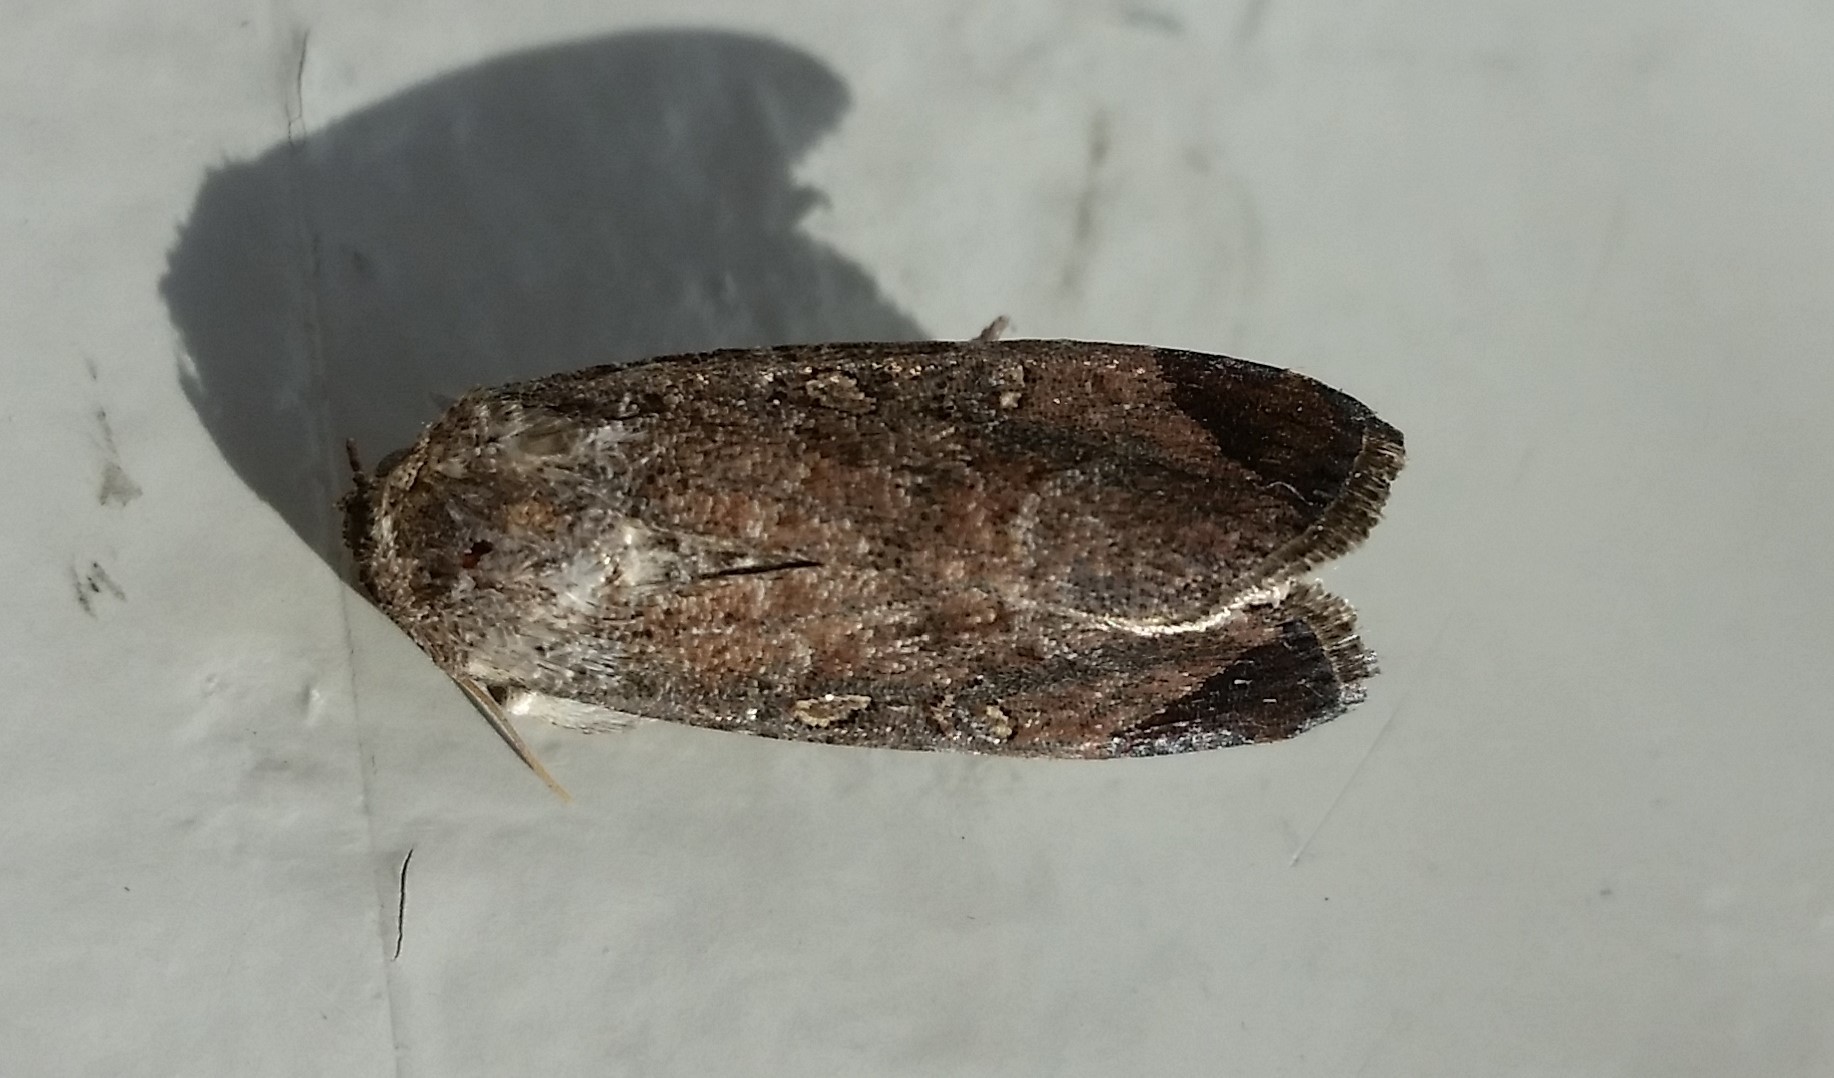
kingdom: Animalia
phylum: Arthropoda
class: Insecta
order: Lepidoptera
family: Noctuidae
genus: Spodoptera
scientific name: Spodoptera frugiperda
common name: Fall armyworm
